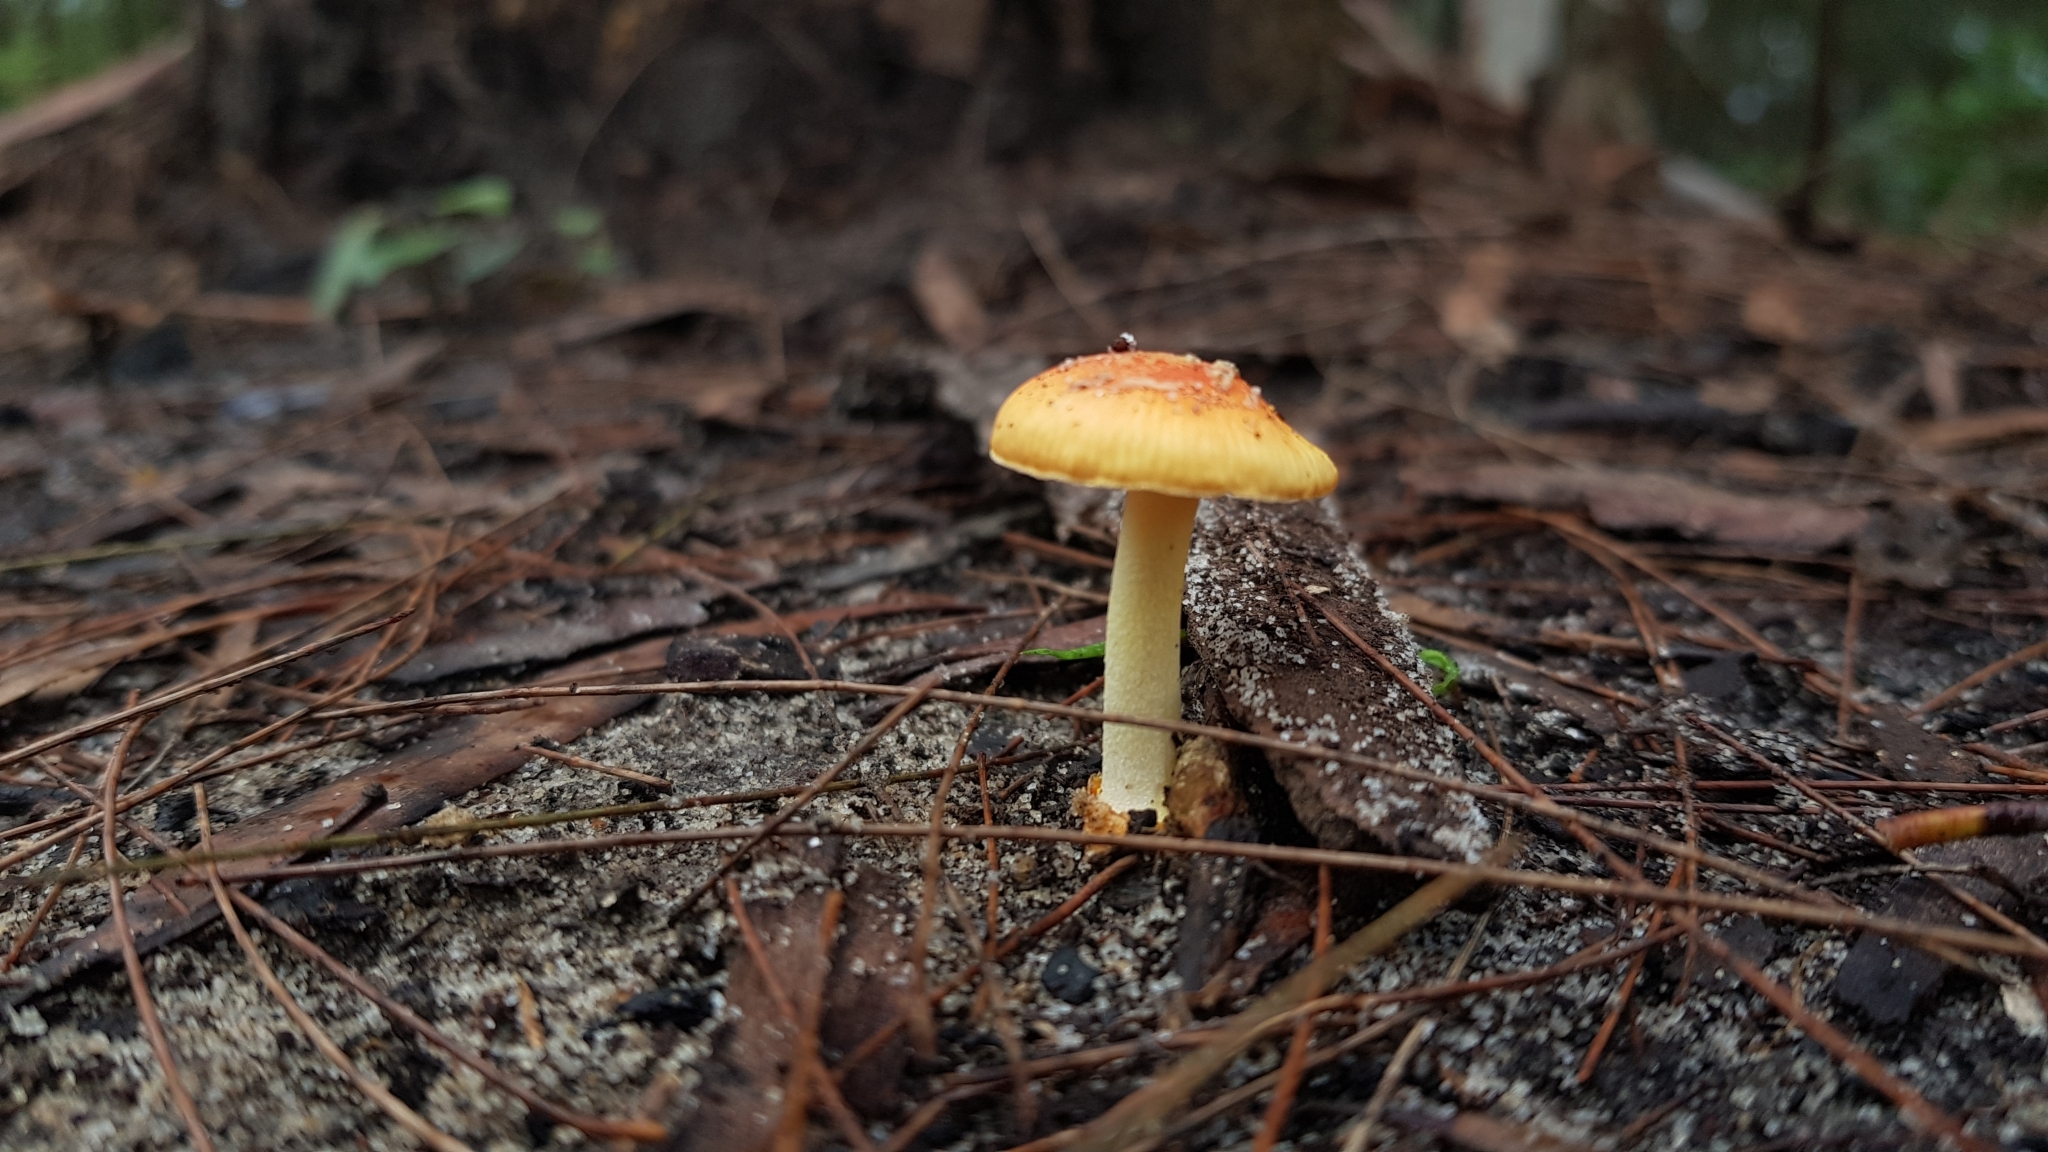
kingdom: Fungi
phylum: Basidiomycota
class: Agaricomycetes
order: Agaricales
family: Amanitaceae
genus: Amanita
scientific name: Amanita xanthocephala
